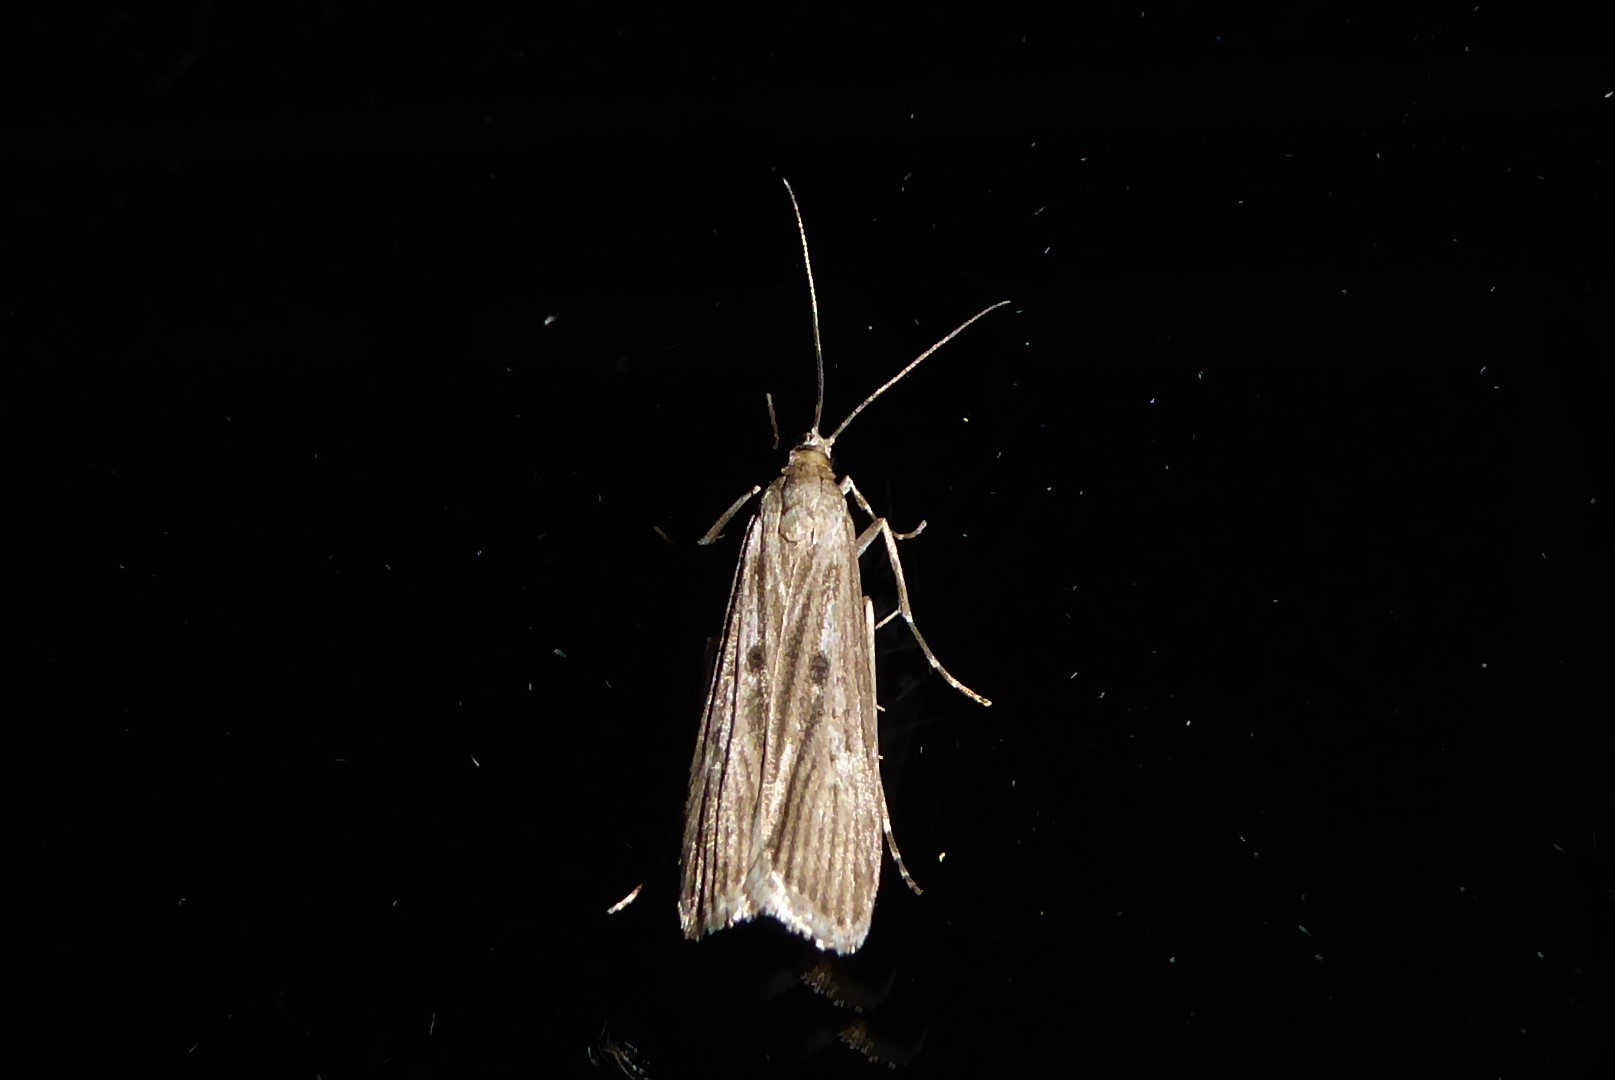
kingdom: Animalia
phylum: Arthropoda
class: Insecta
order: Lepidoptera
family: Crambidae
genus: Eudonia
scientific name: Eudonia atmogramma
